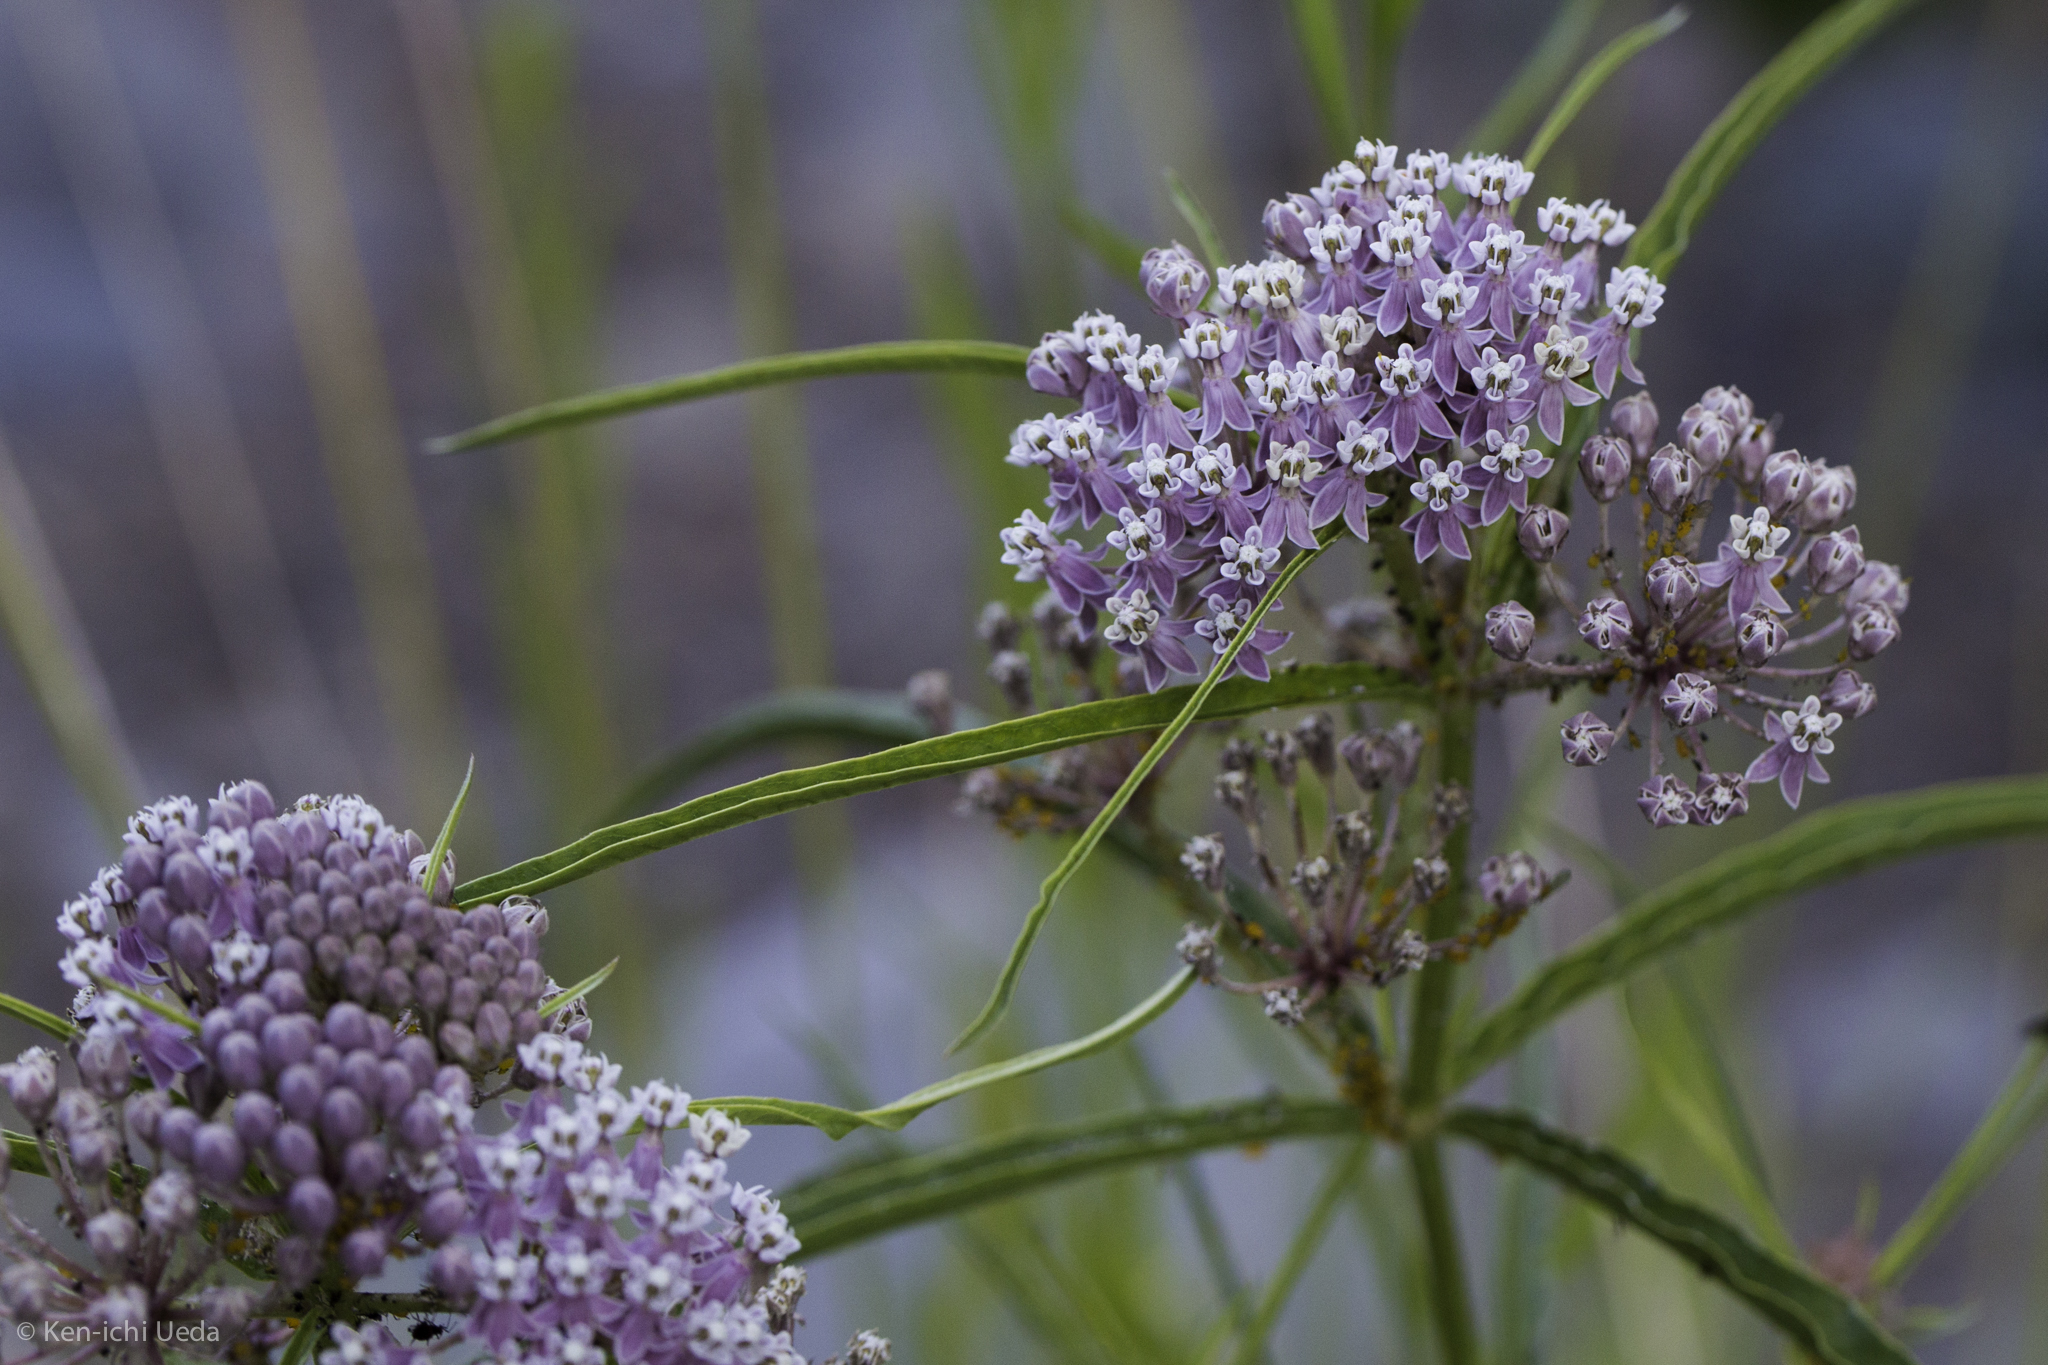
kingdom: Plantae
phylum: Tracheophyta
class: Magnoliopsida
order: Gentianales
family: Apocynaceae
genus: Asclepias
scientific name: Asclepias fascicularis
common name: Mexican milkweed
